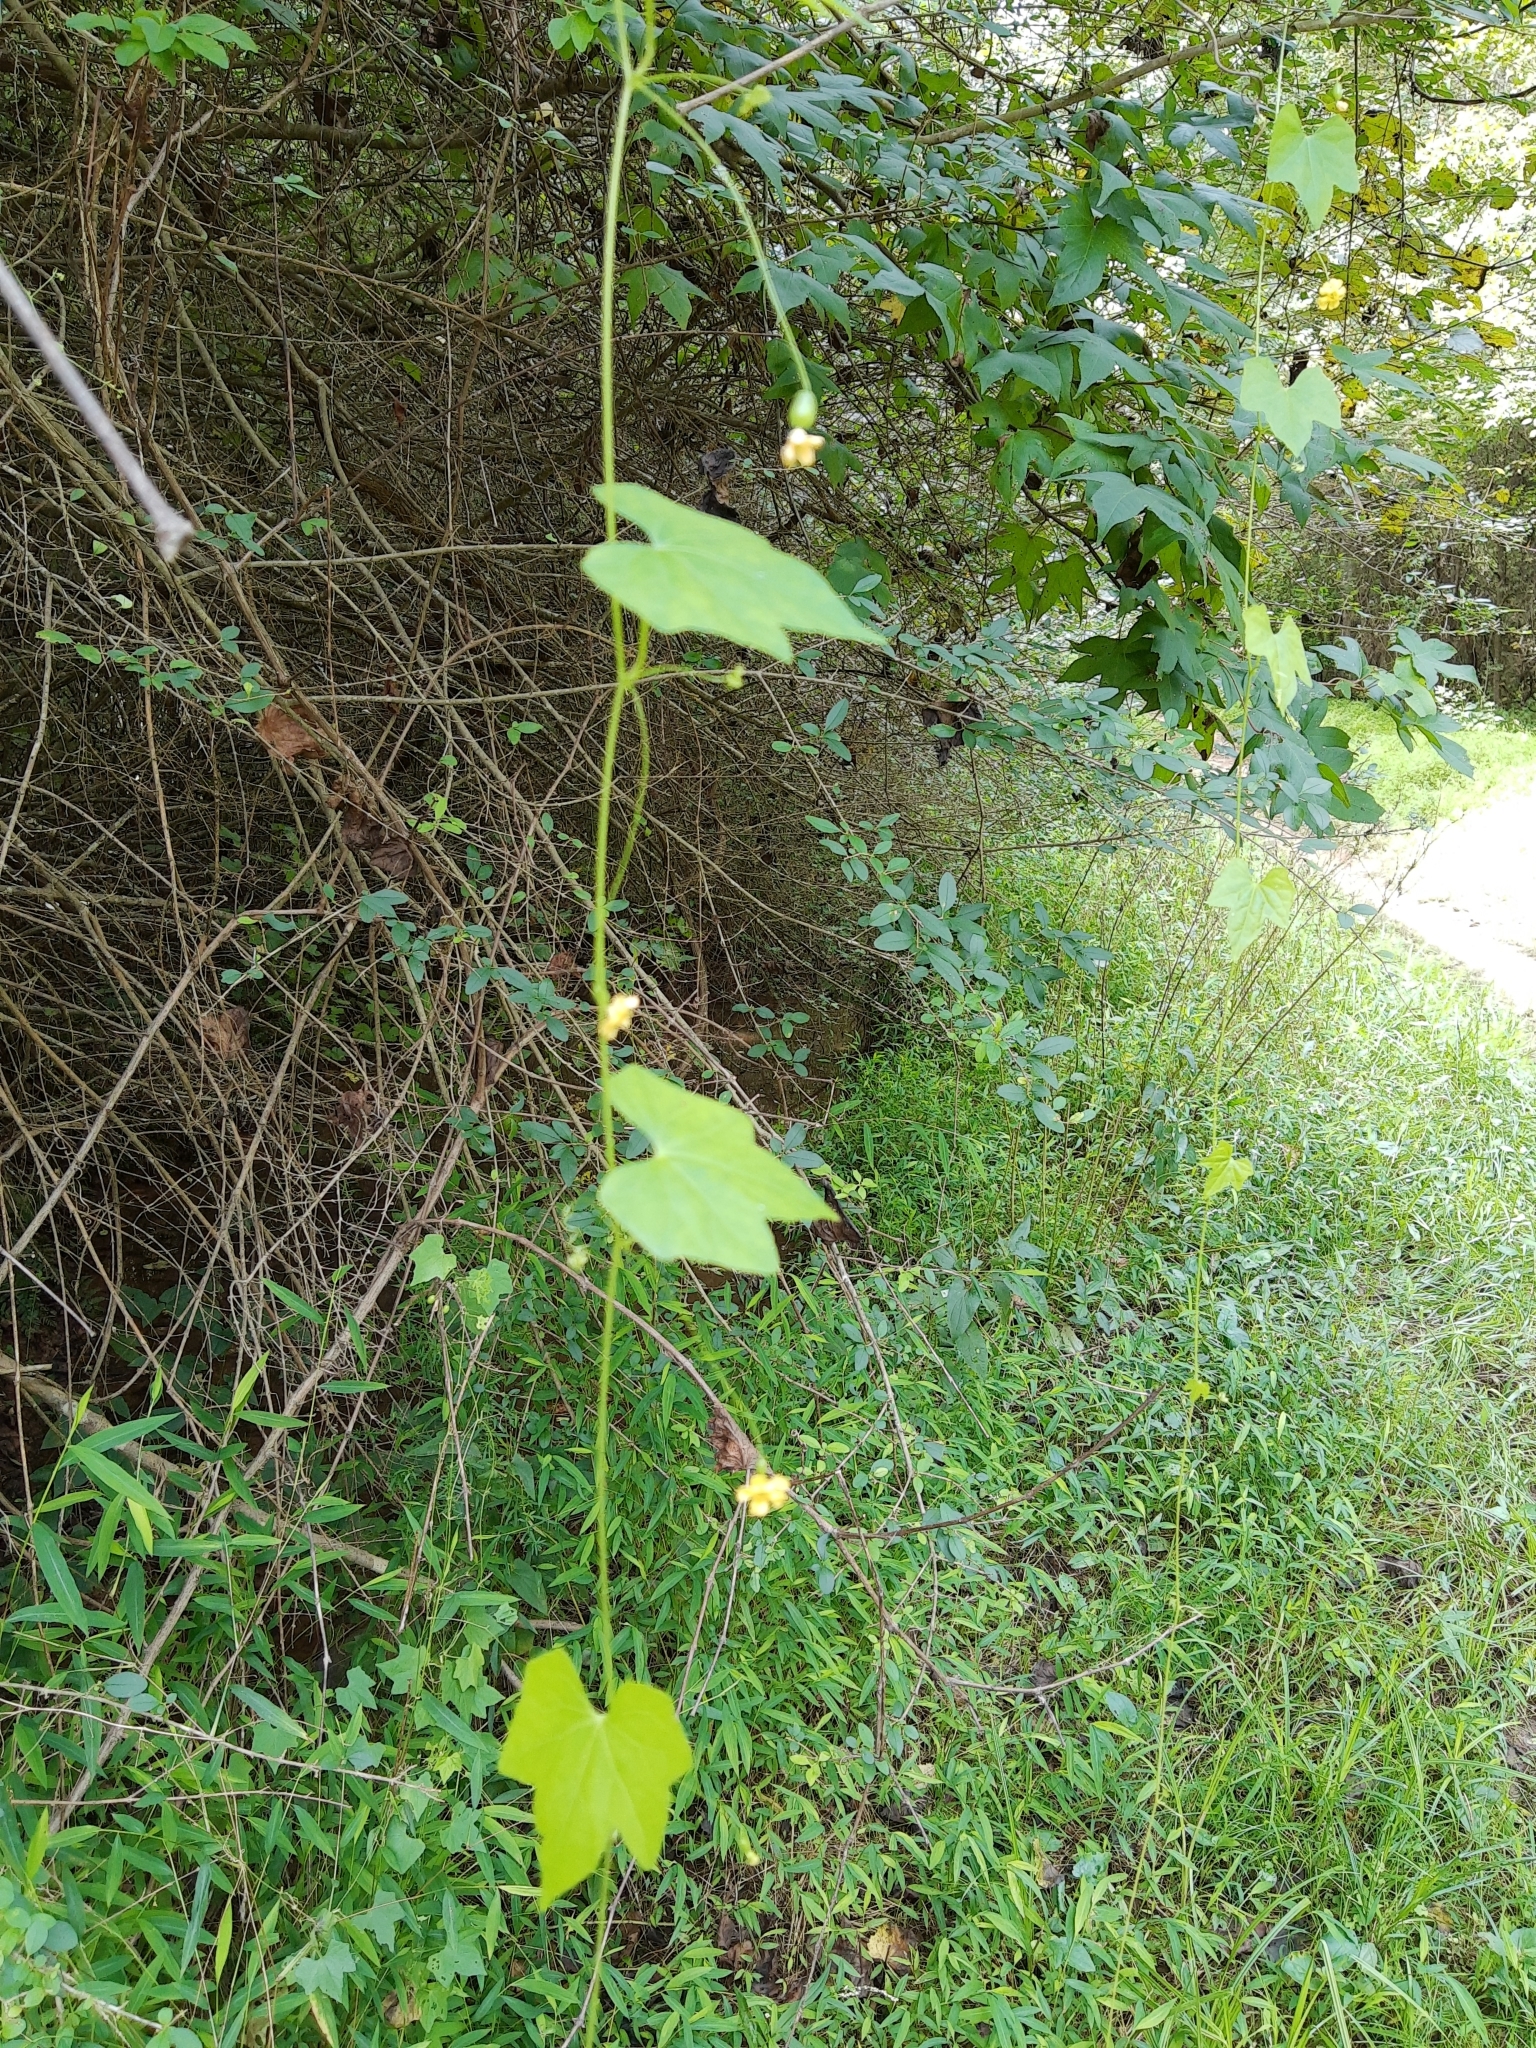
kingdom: Plantae
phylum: Tracheophyta
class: Magnoliopsida
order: Cucurbitales
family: Cucurbitaceae
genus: Melothria
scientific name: Melothria pendula
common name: Creeping-cucumber
